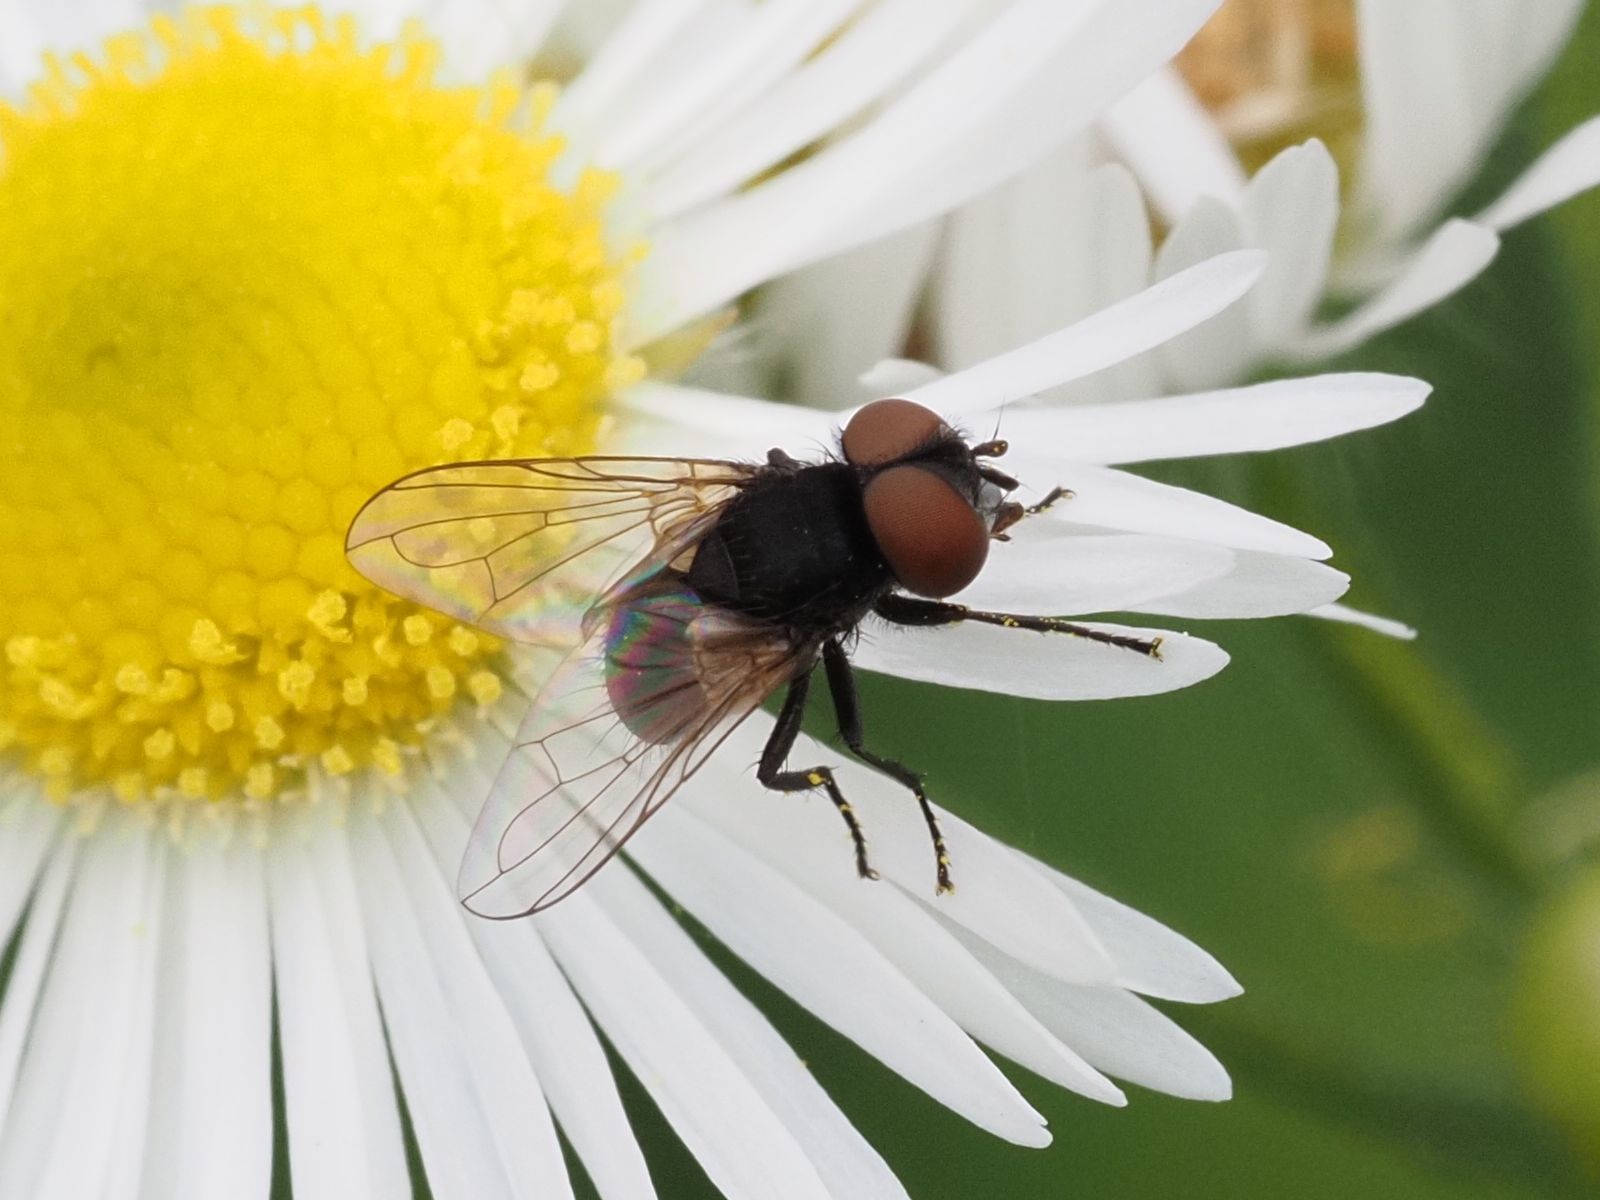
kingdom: Animalia
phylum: Arthropoda
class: Insecta
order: Diptera
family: Tachinidae
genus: Phasia
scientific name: Phasia barbifrons
